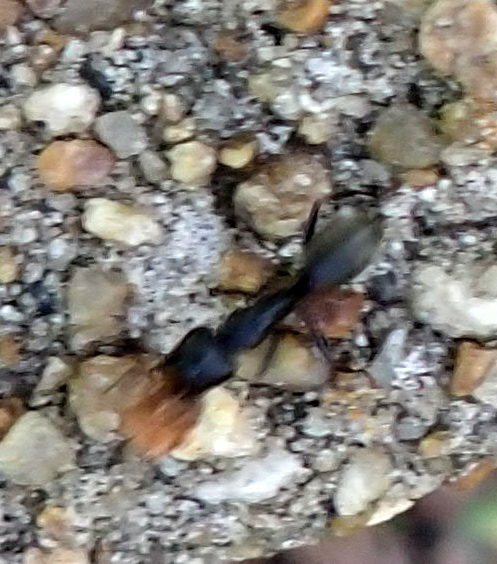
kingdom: Animalia
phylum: Arthropoda
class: Insecta
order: Hymenoptera
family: Formicidae
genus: Camponotus
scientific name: Camponotus pennsylvanicus
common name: Black carpenter ant
